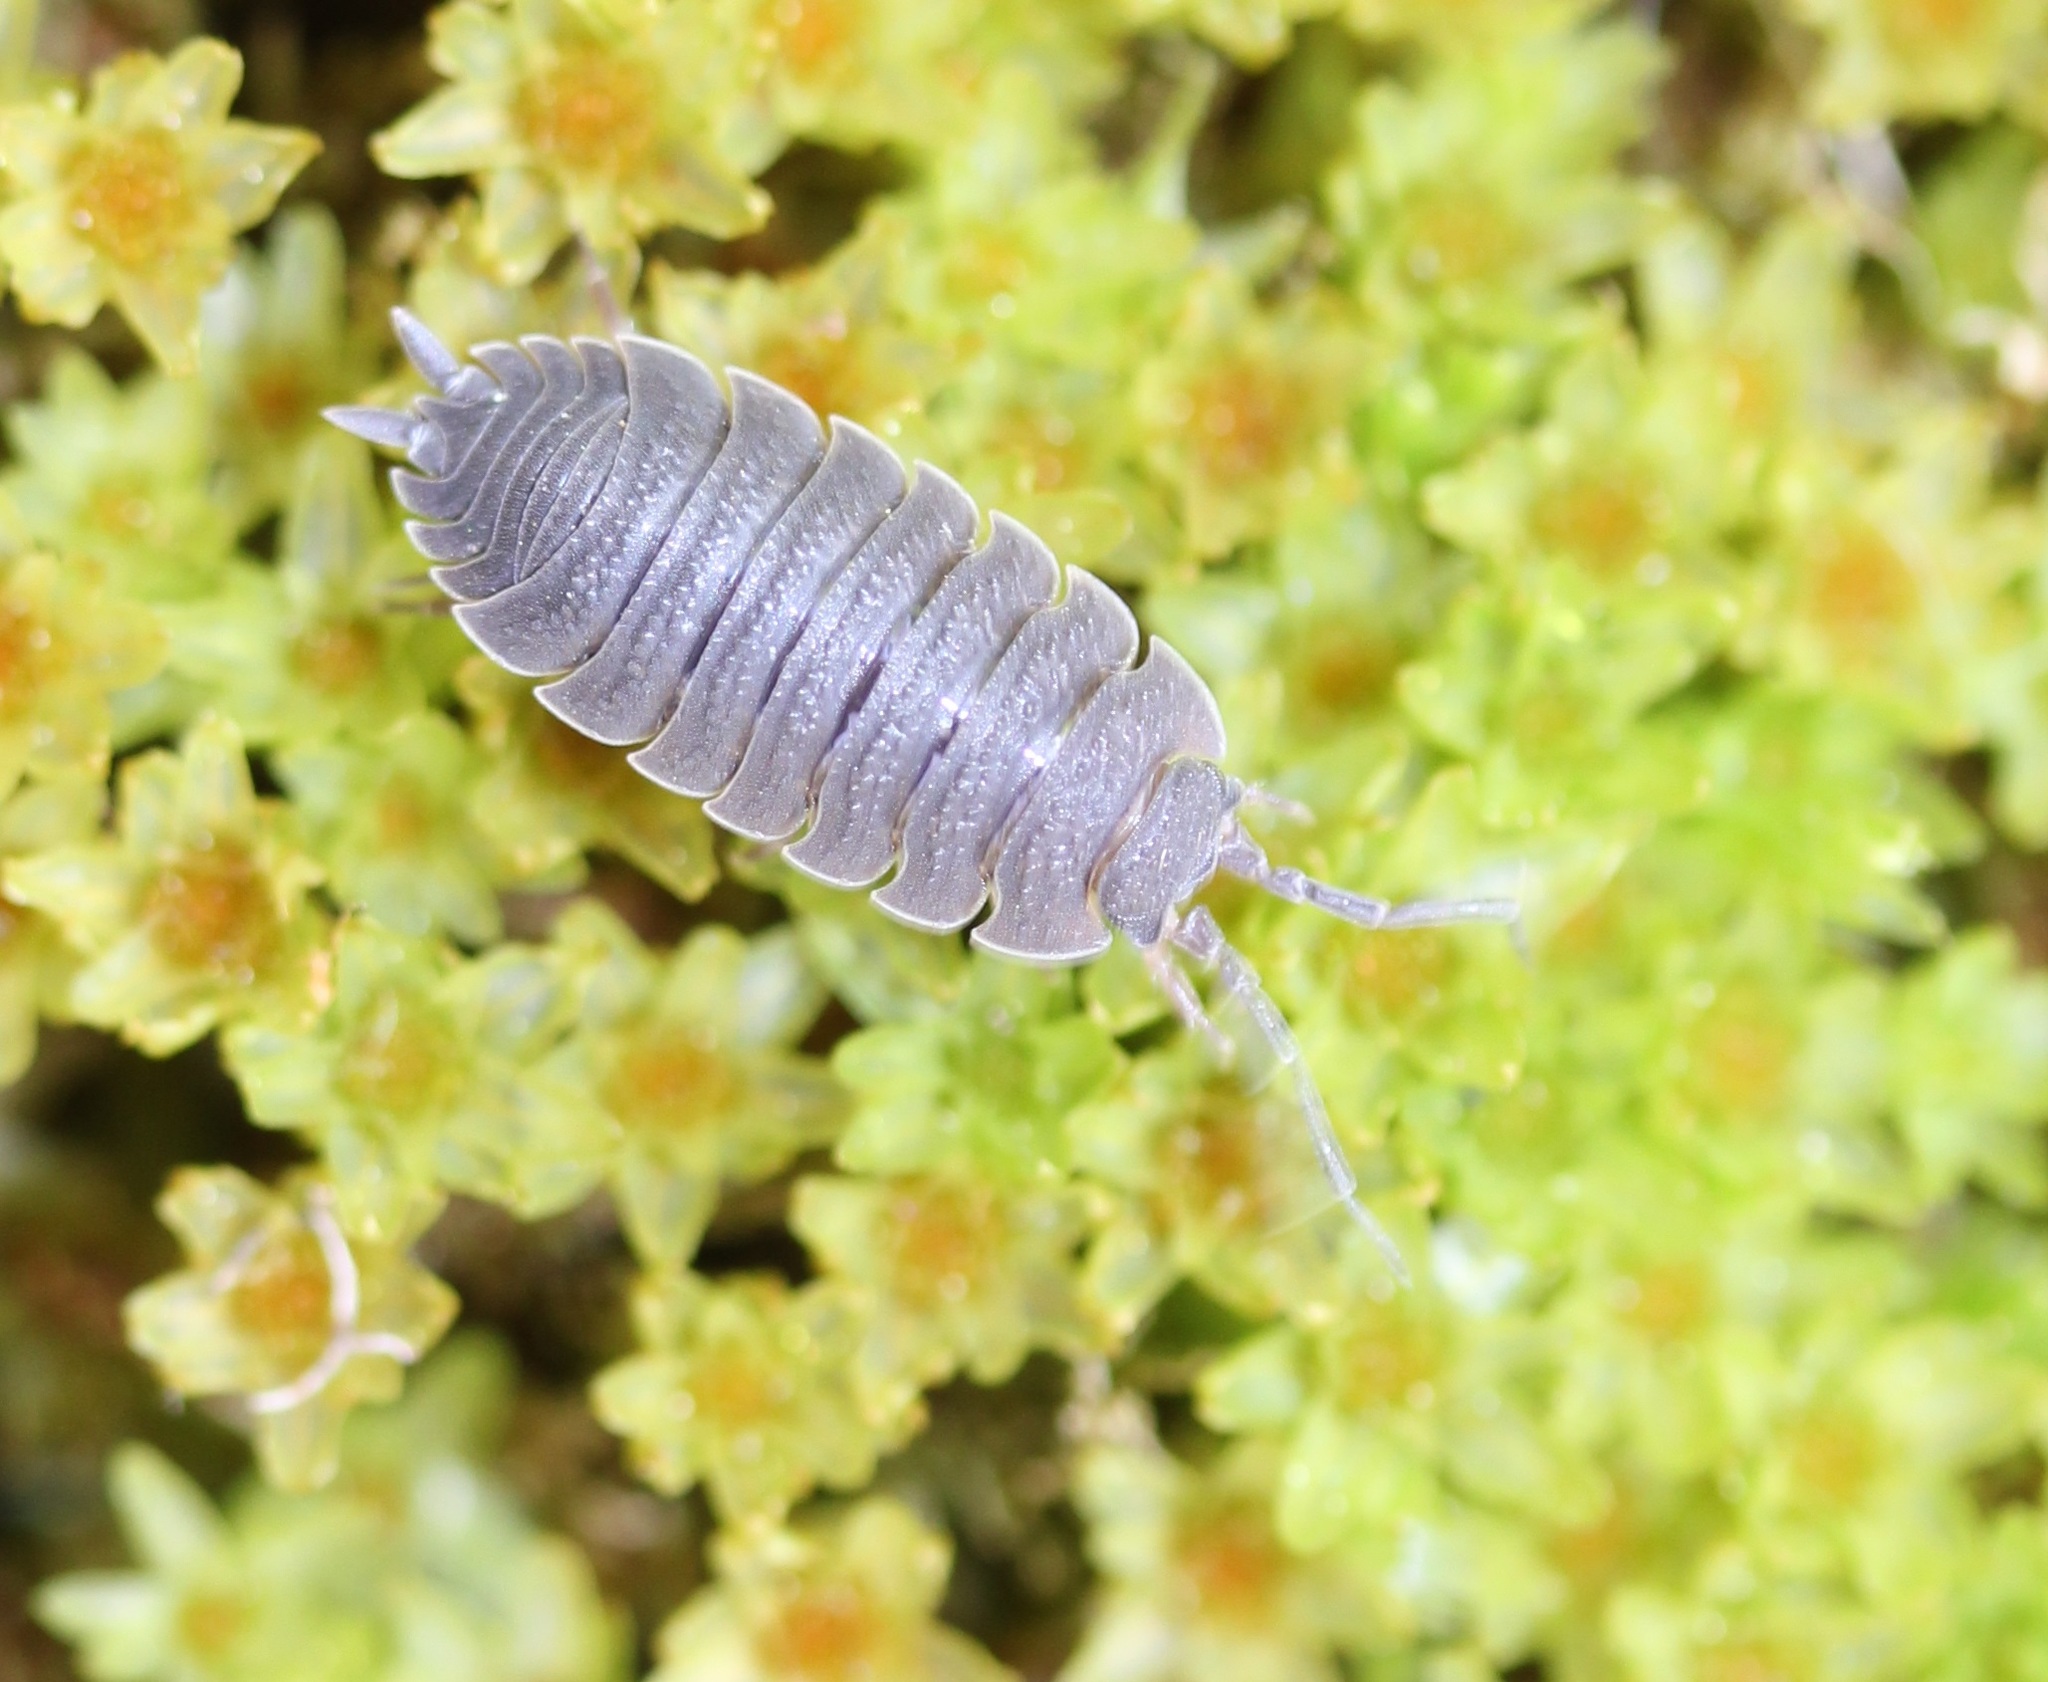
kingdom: Animalia
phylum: Arthropoda
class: Malacostraca
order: Isopoda
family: Porcellionidae
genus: Porcellio
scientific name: Porcellio scaber
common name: Common rough woodlouse
